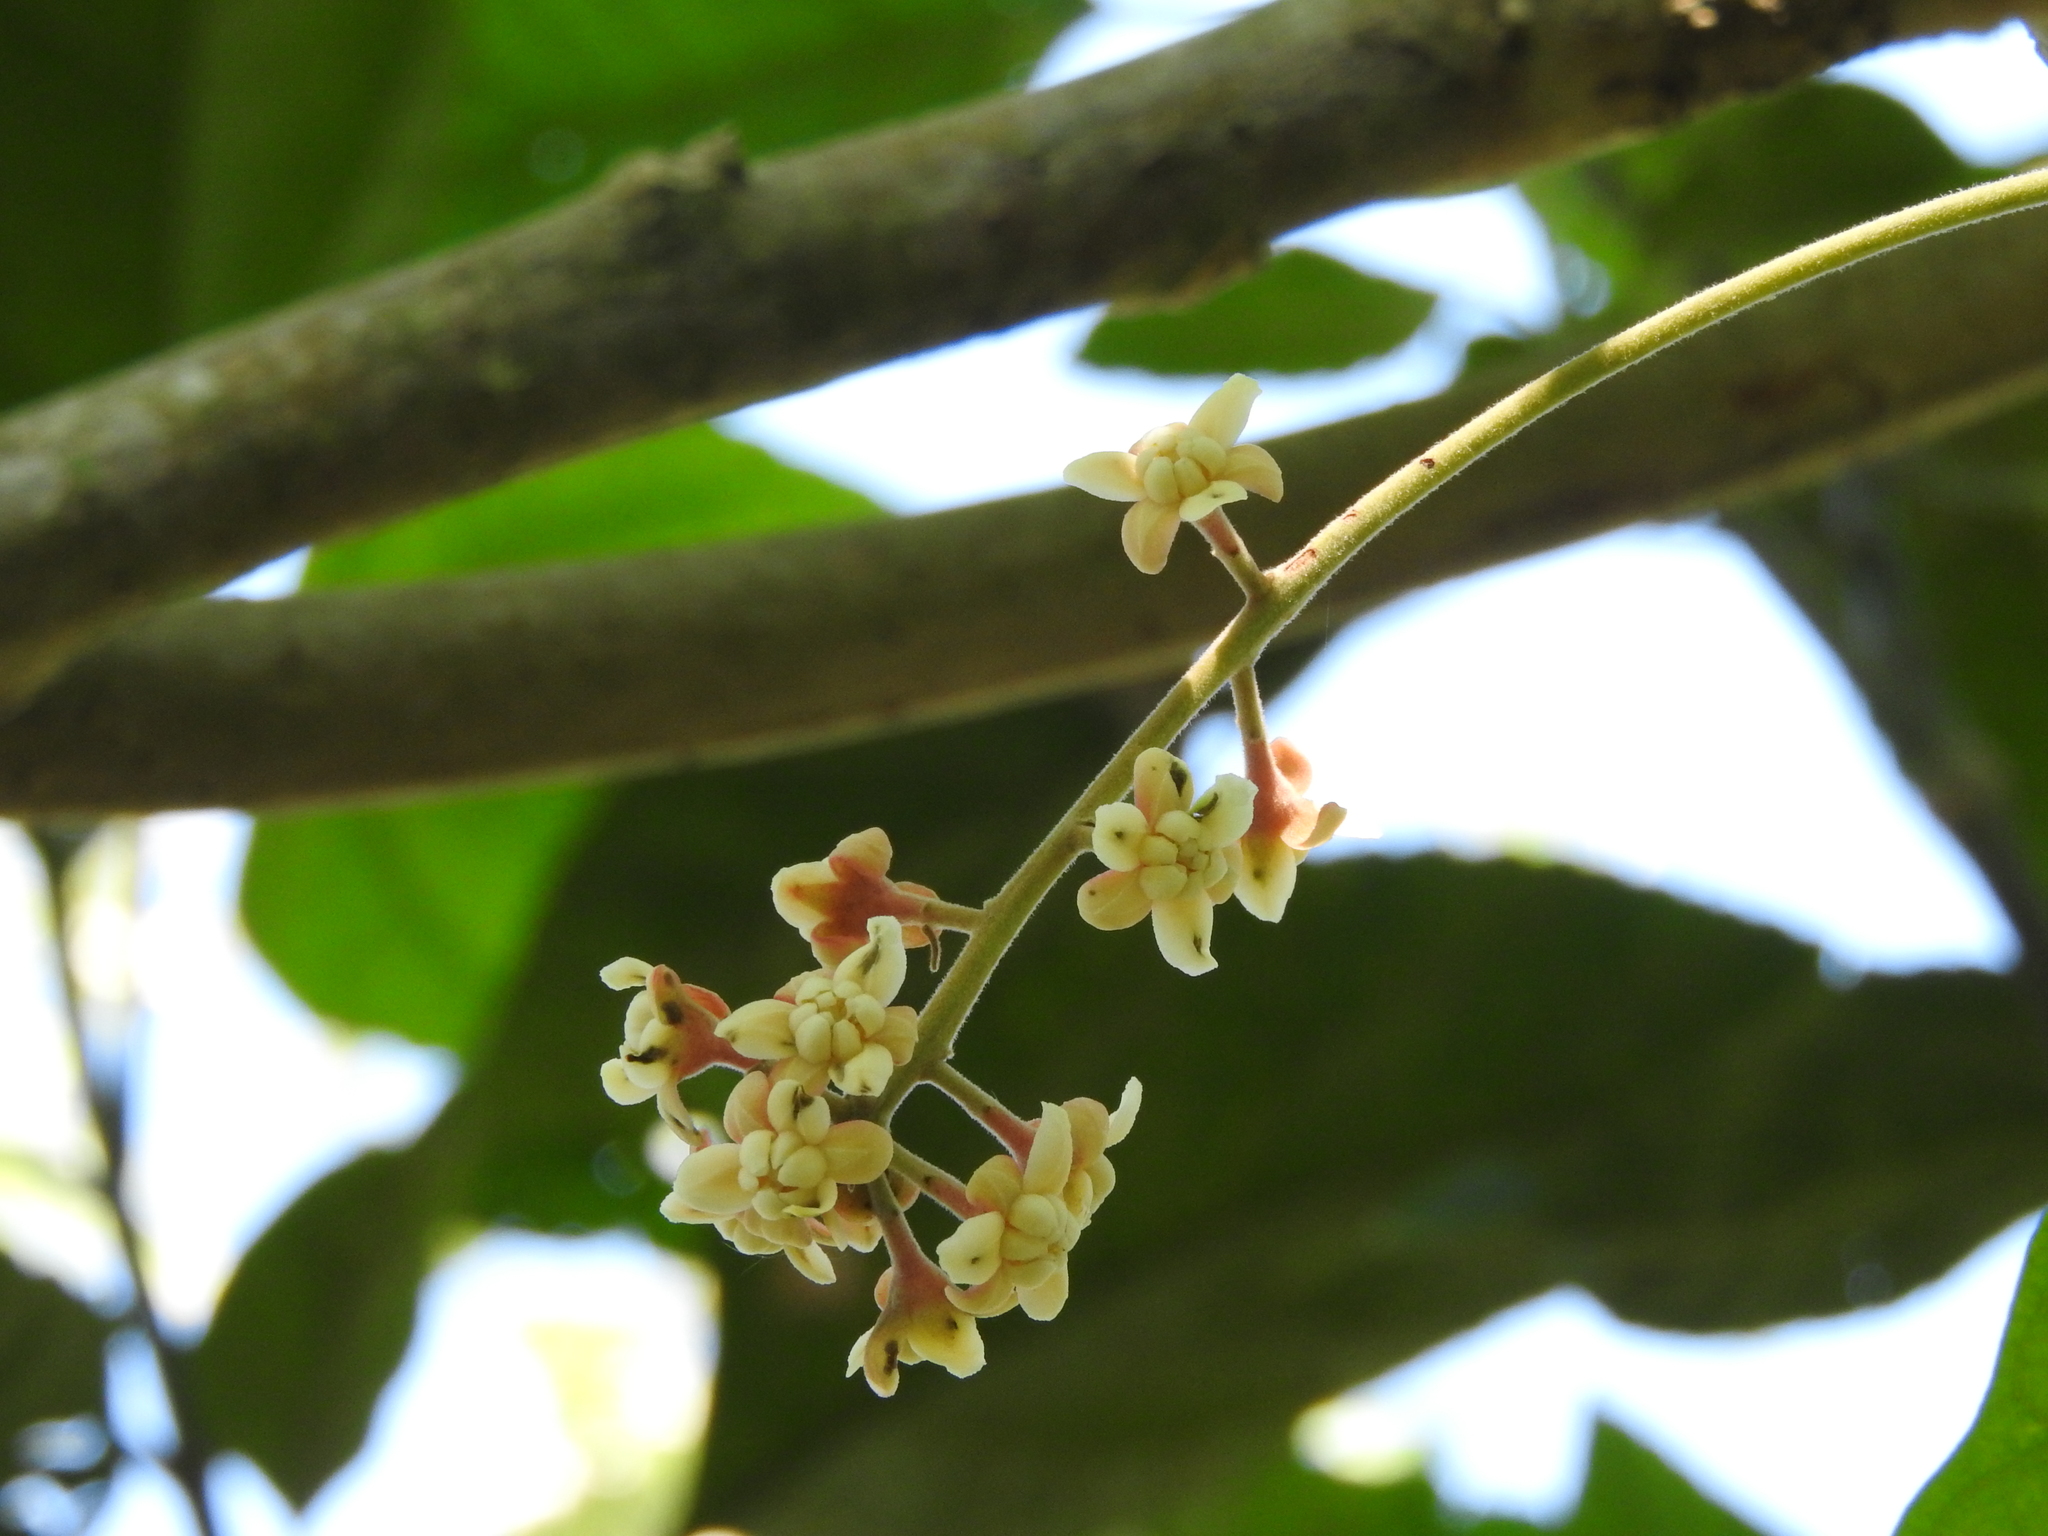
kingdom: Plantae
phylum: Tracheophyta
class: Magnoliopsida
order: Laurales
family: Lauraceae
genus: Ocotea
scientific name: Ocotea botrantha
